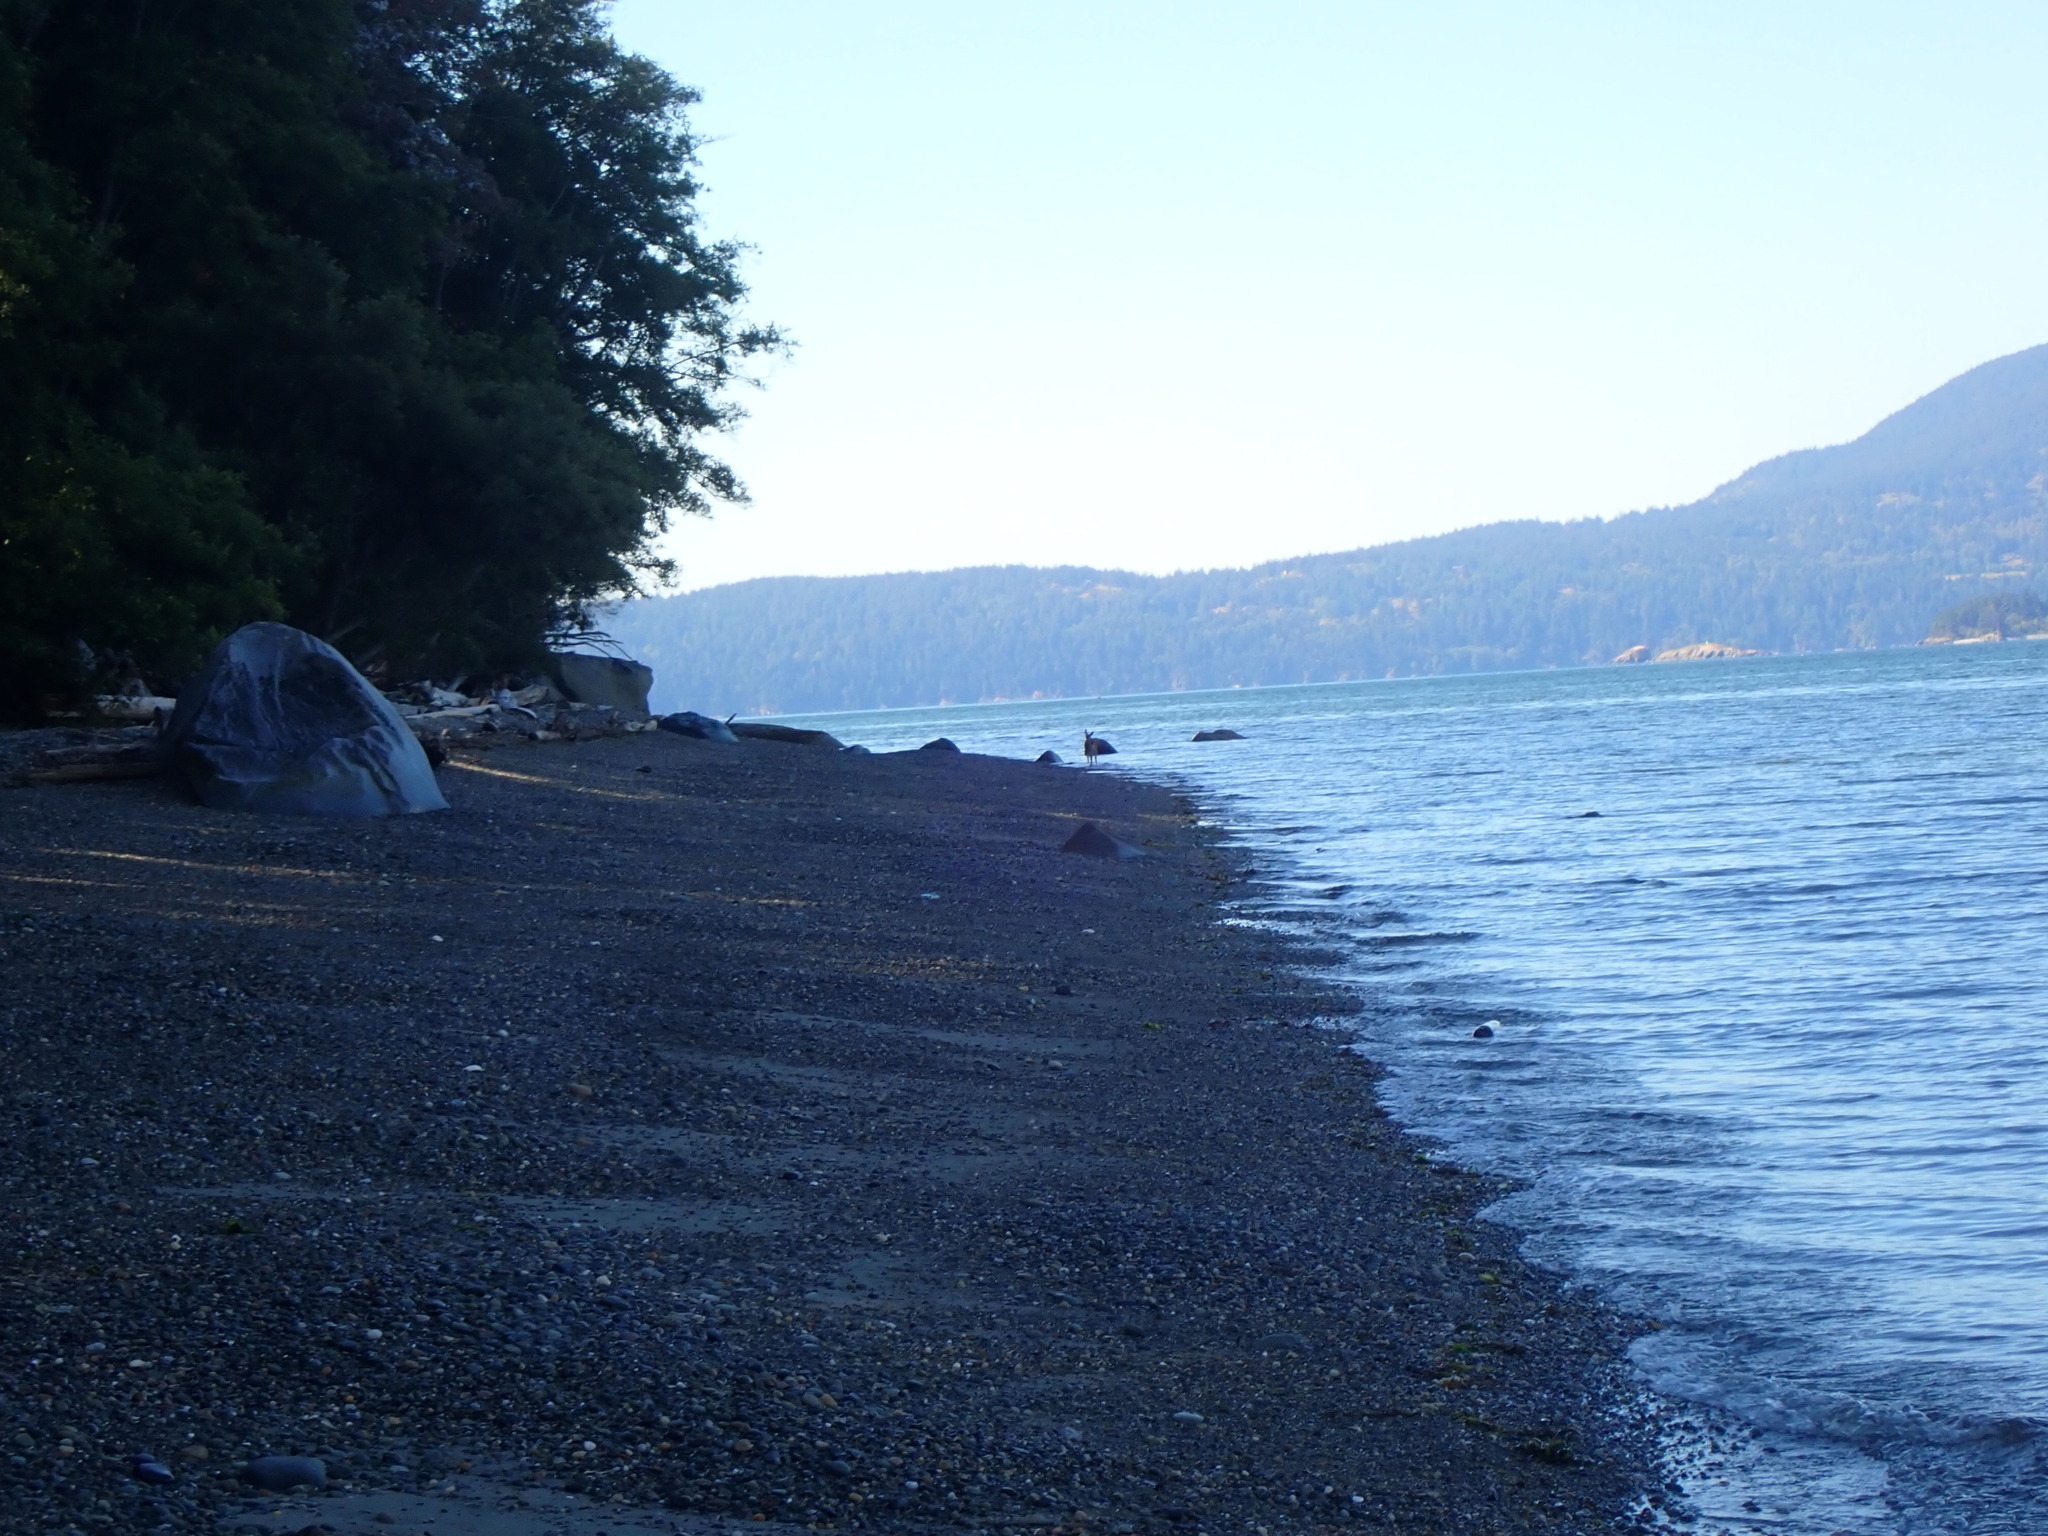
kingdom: Animalia
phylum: Chordata
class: Mammalia
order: Artiodactyla
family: Cervidae
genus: Odocoileus
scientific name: Odocoileus hemionus
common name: Mule deer
